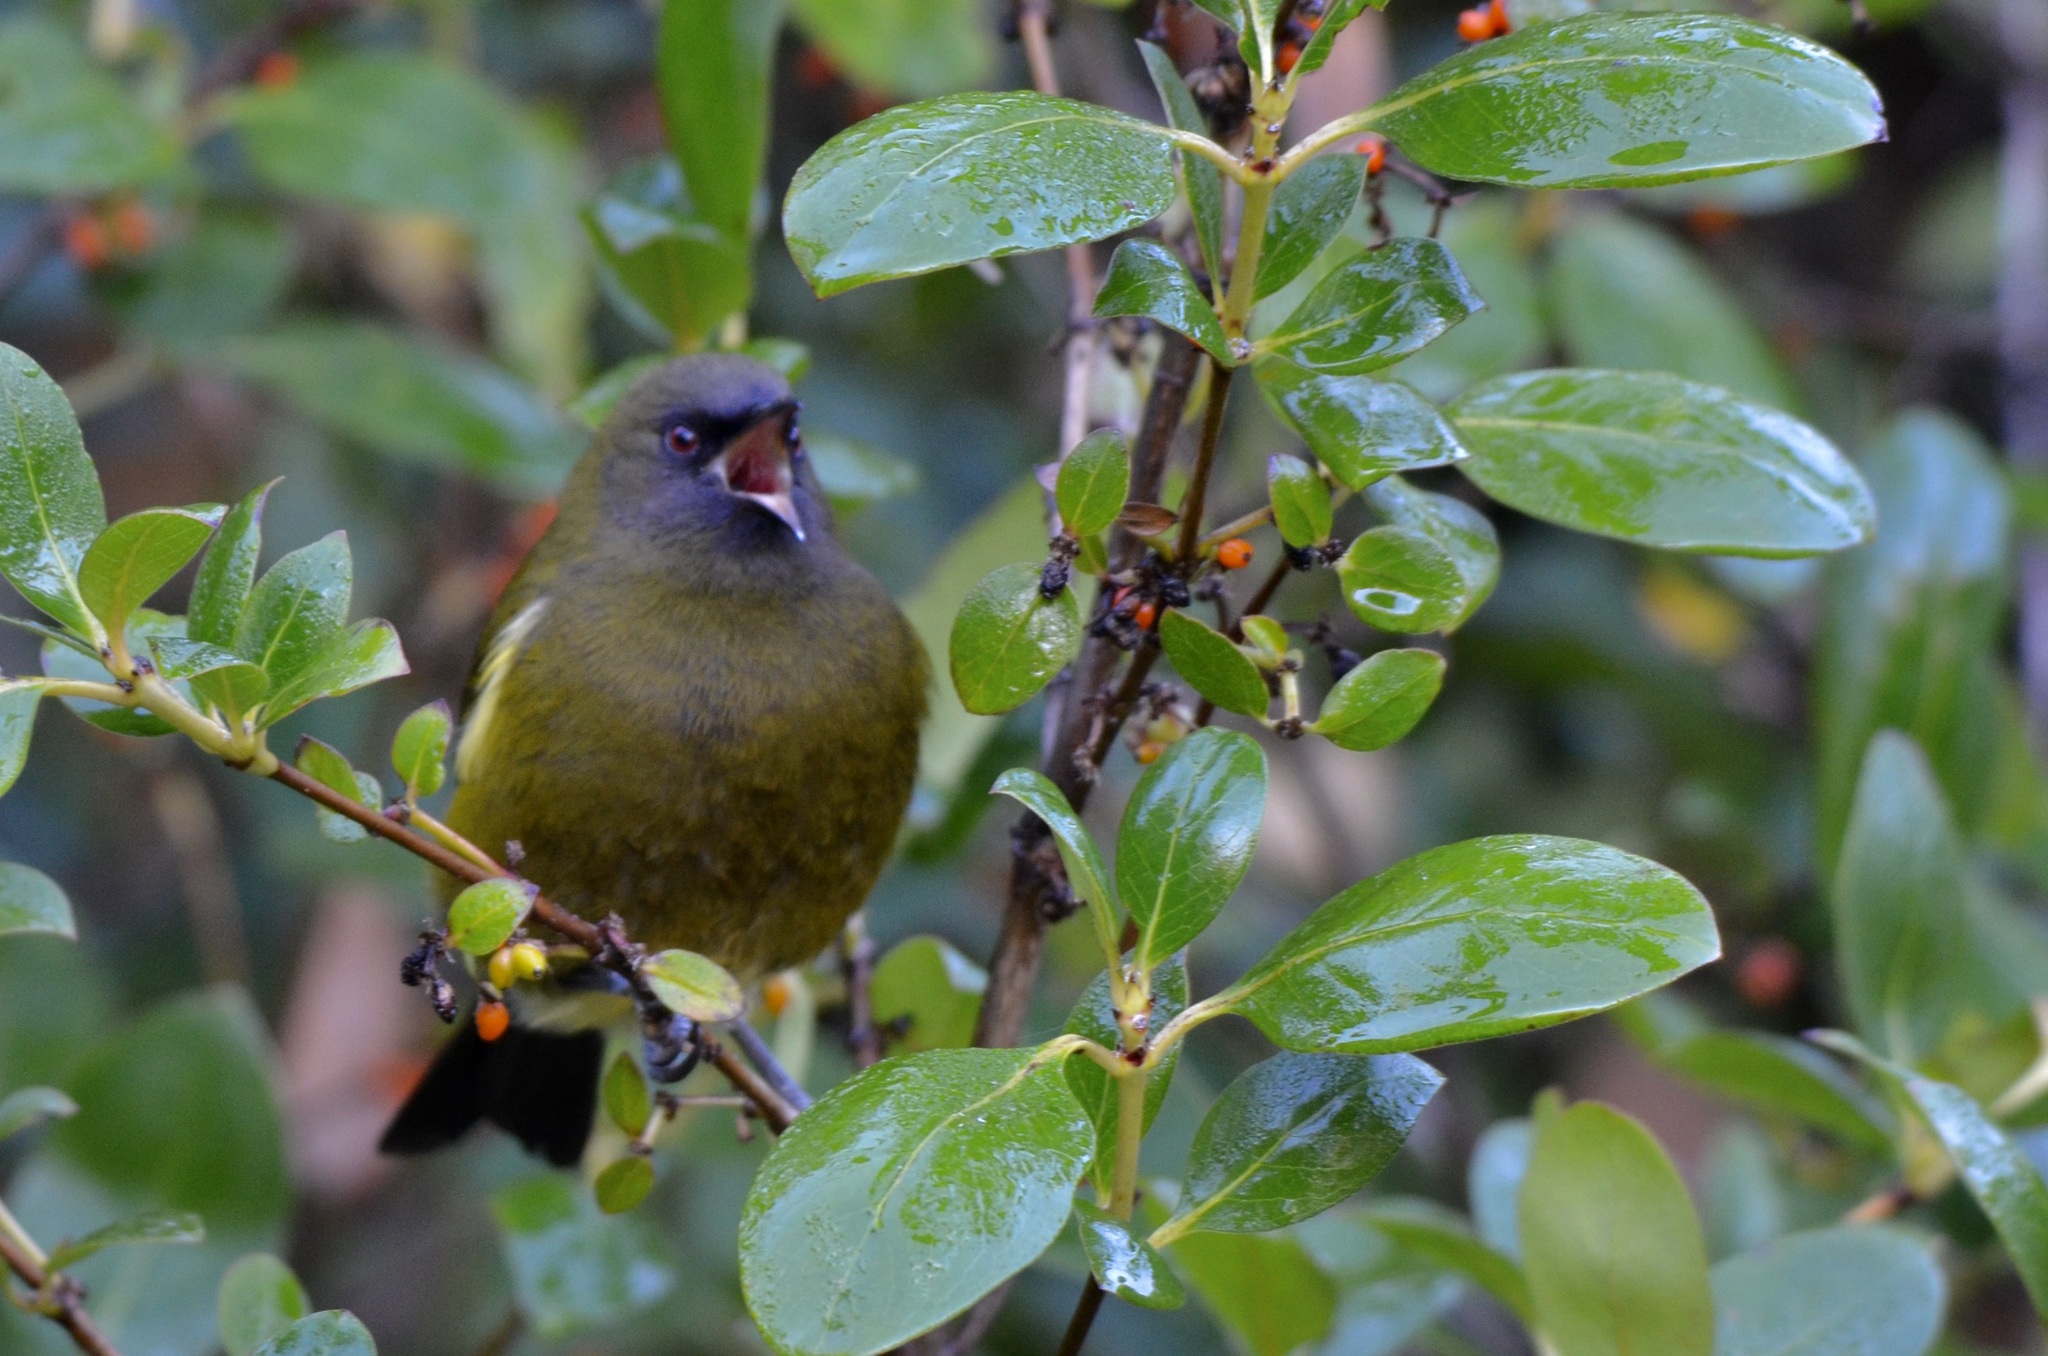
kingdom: Animalia
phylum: Chordata
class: Aves
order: Passeriformes
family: Meliphagidae
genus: Anthornis
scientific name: Anthornis melanura
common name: New zealand bellbird
